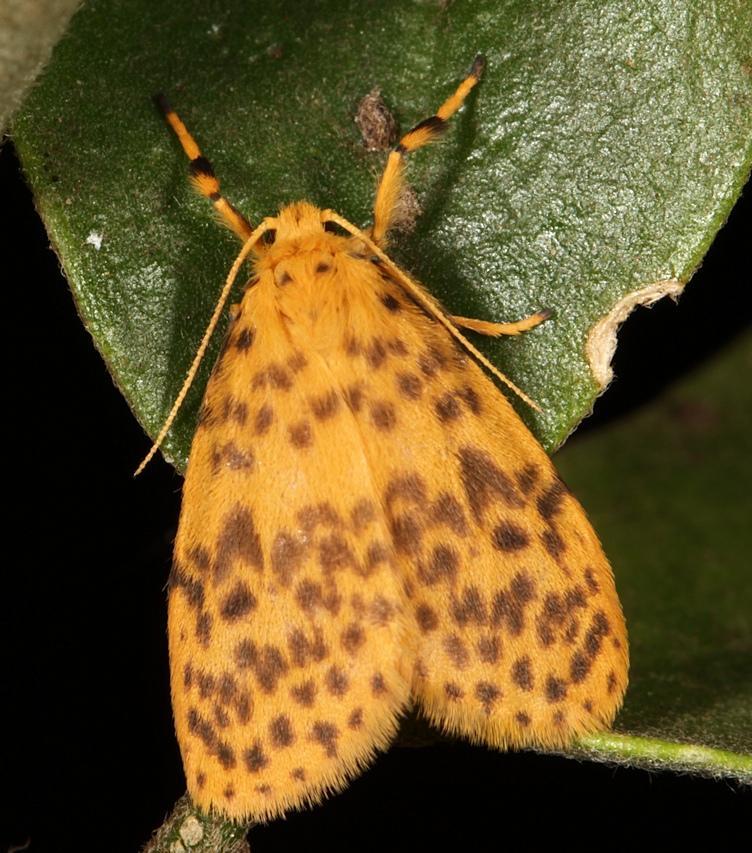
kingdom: Animalia
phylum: Arthropoda
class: Insecta
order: Lepidoptera
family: Erebidae
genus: Afrasura
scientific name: Afrasura rivulosa
